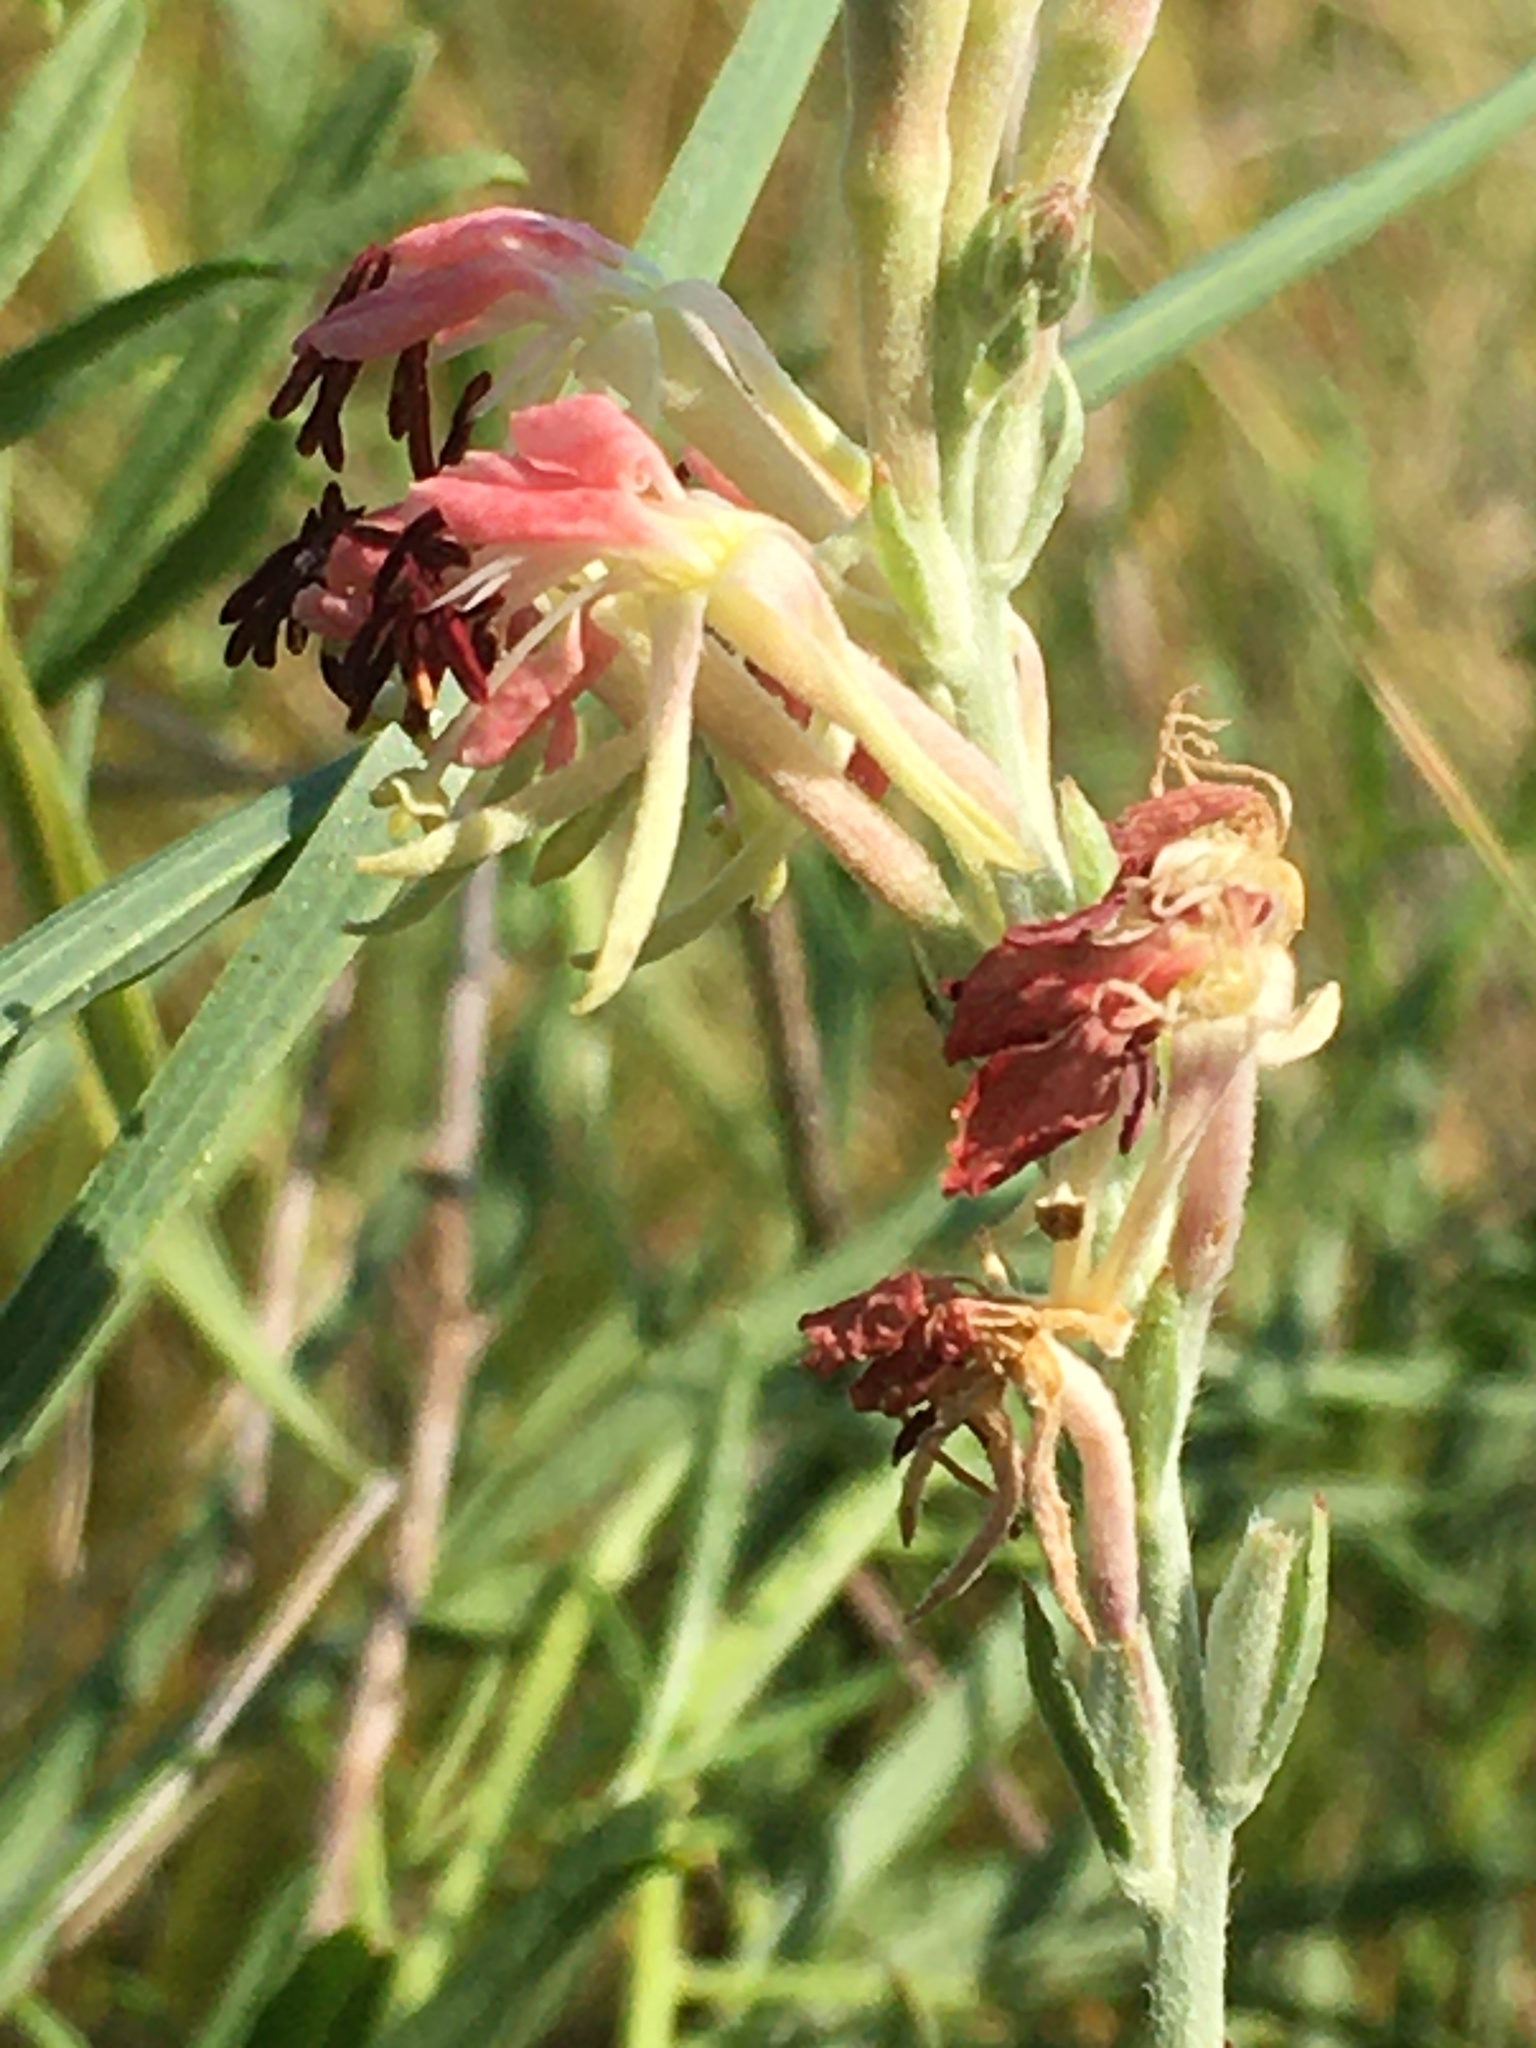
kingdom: Plantae
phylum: Tracheophyta
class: Magnoliopsida
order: Myrtales
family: Onagraceae
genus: Oenothera
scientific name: Oenothera suffrutescens
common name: Scarlet beeblossom
